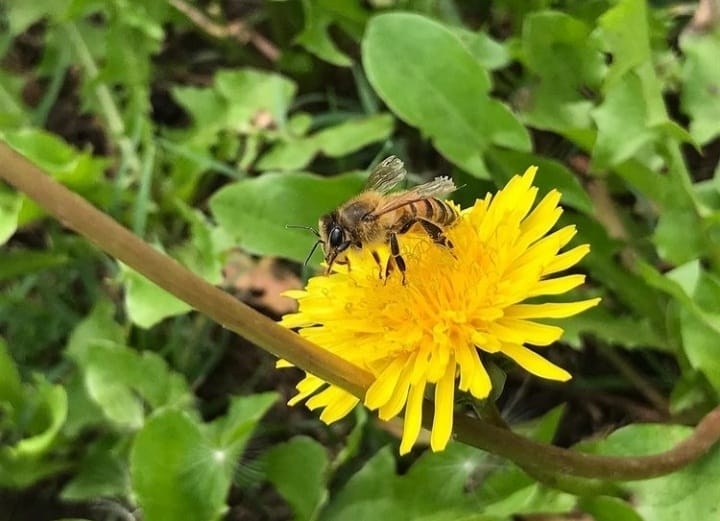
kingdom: Animalia
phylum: Arthropoda
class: Insecta
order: Hymenoptera
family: Apidae
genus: Apis
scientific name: Apis mellifera
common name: Honey bee
